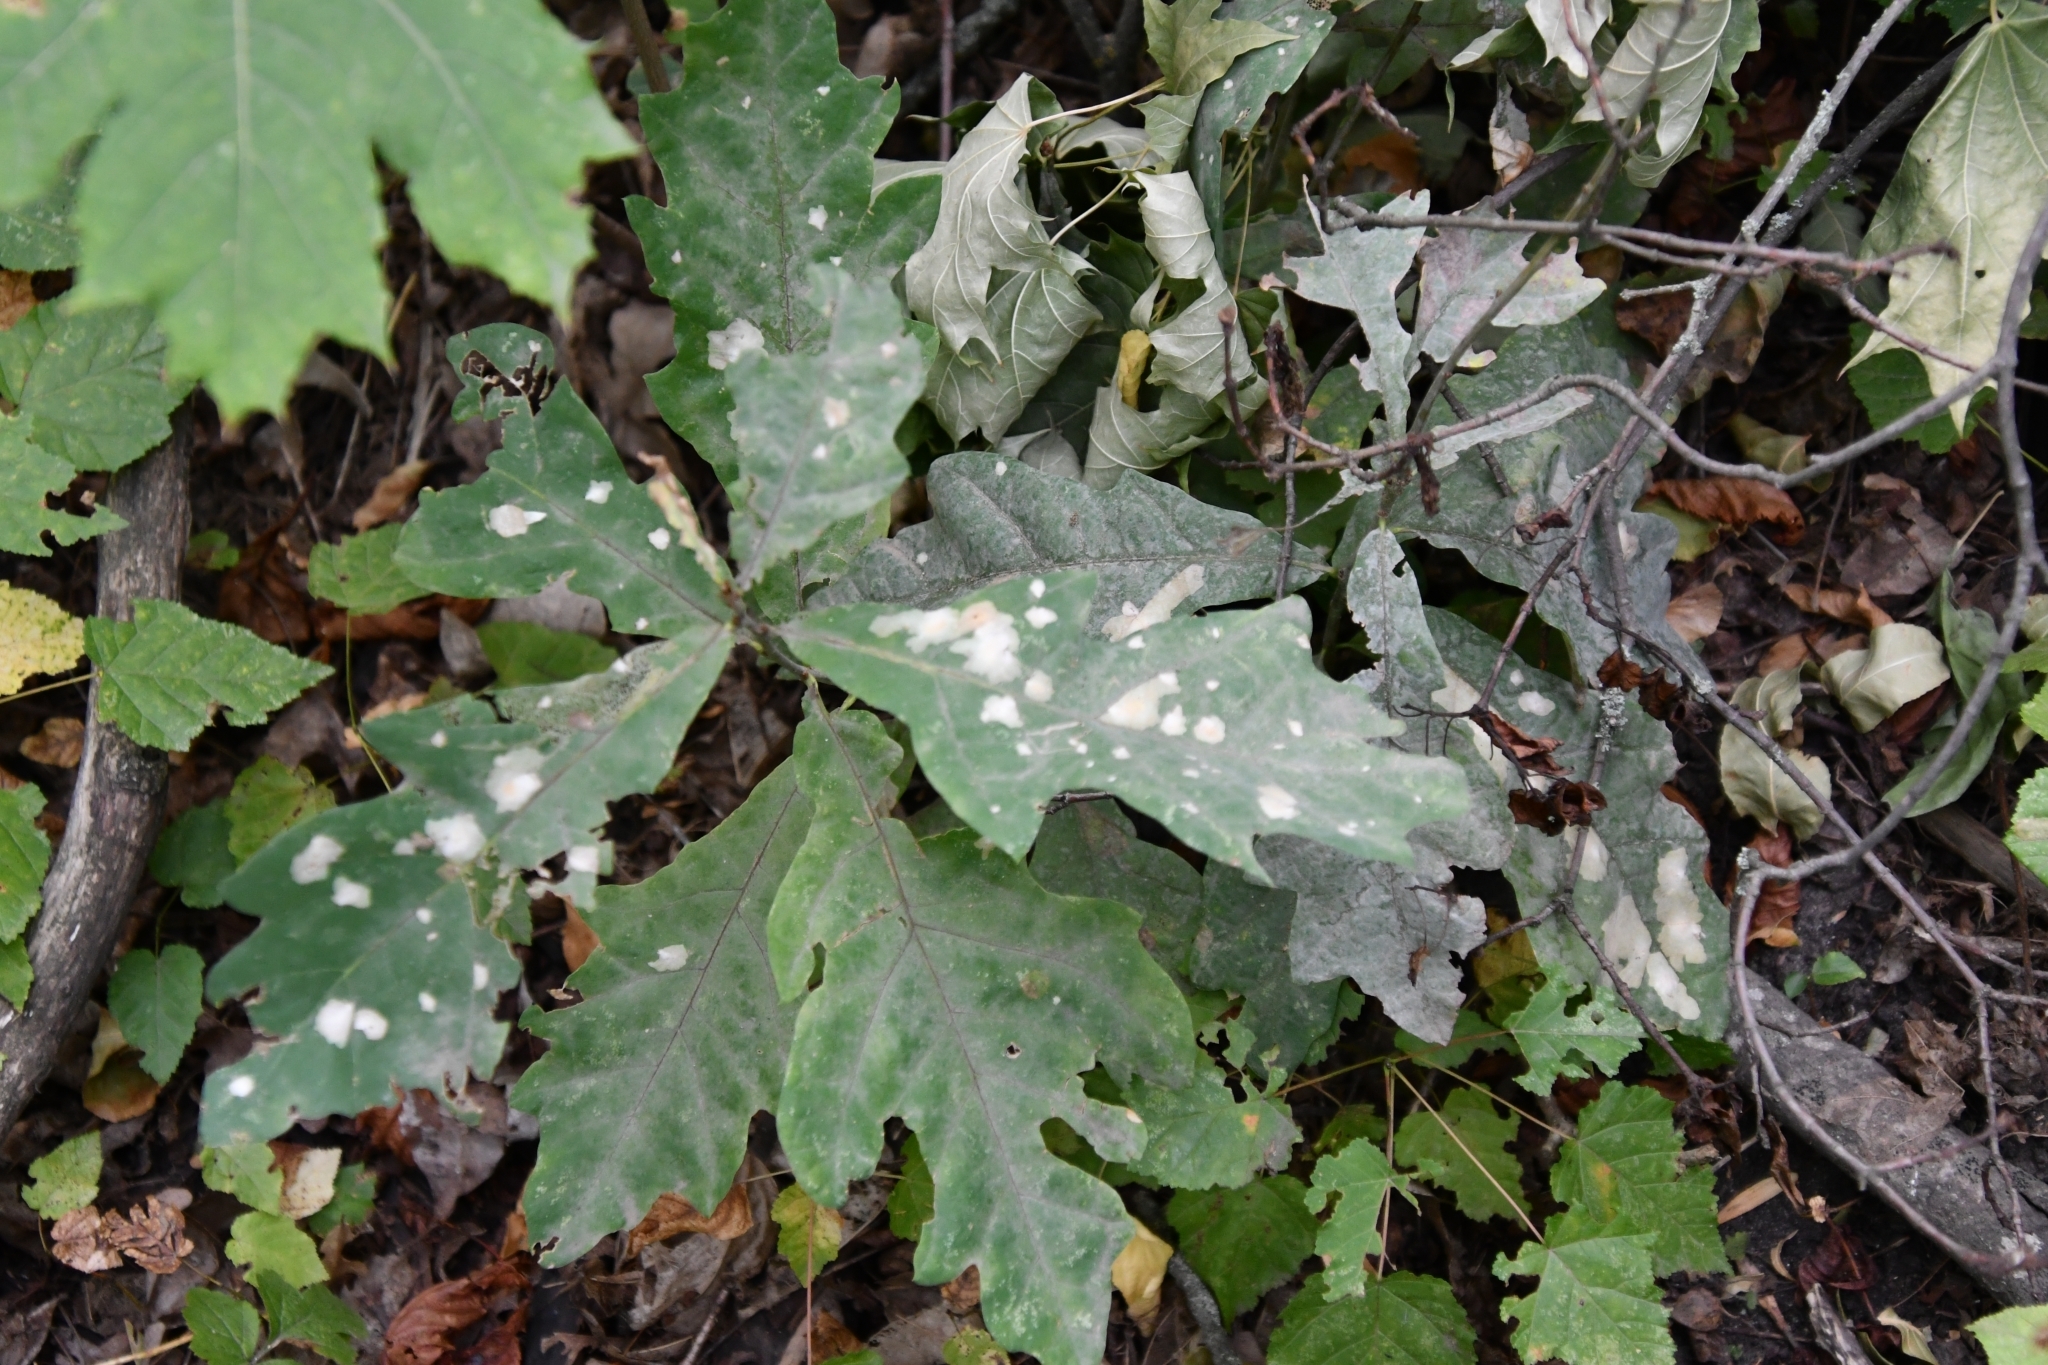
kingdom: Fungi
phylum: Ascomycota
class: Leotiomycetes
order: Helotiales
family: Erysiphaceae
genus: Erysiphe
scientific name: Erysiphe alphitoides
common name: Oak mildew
